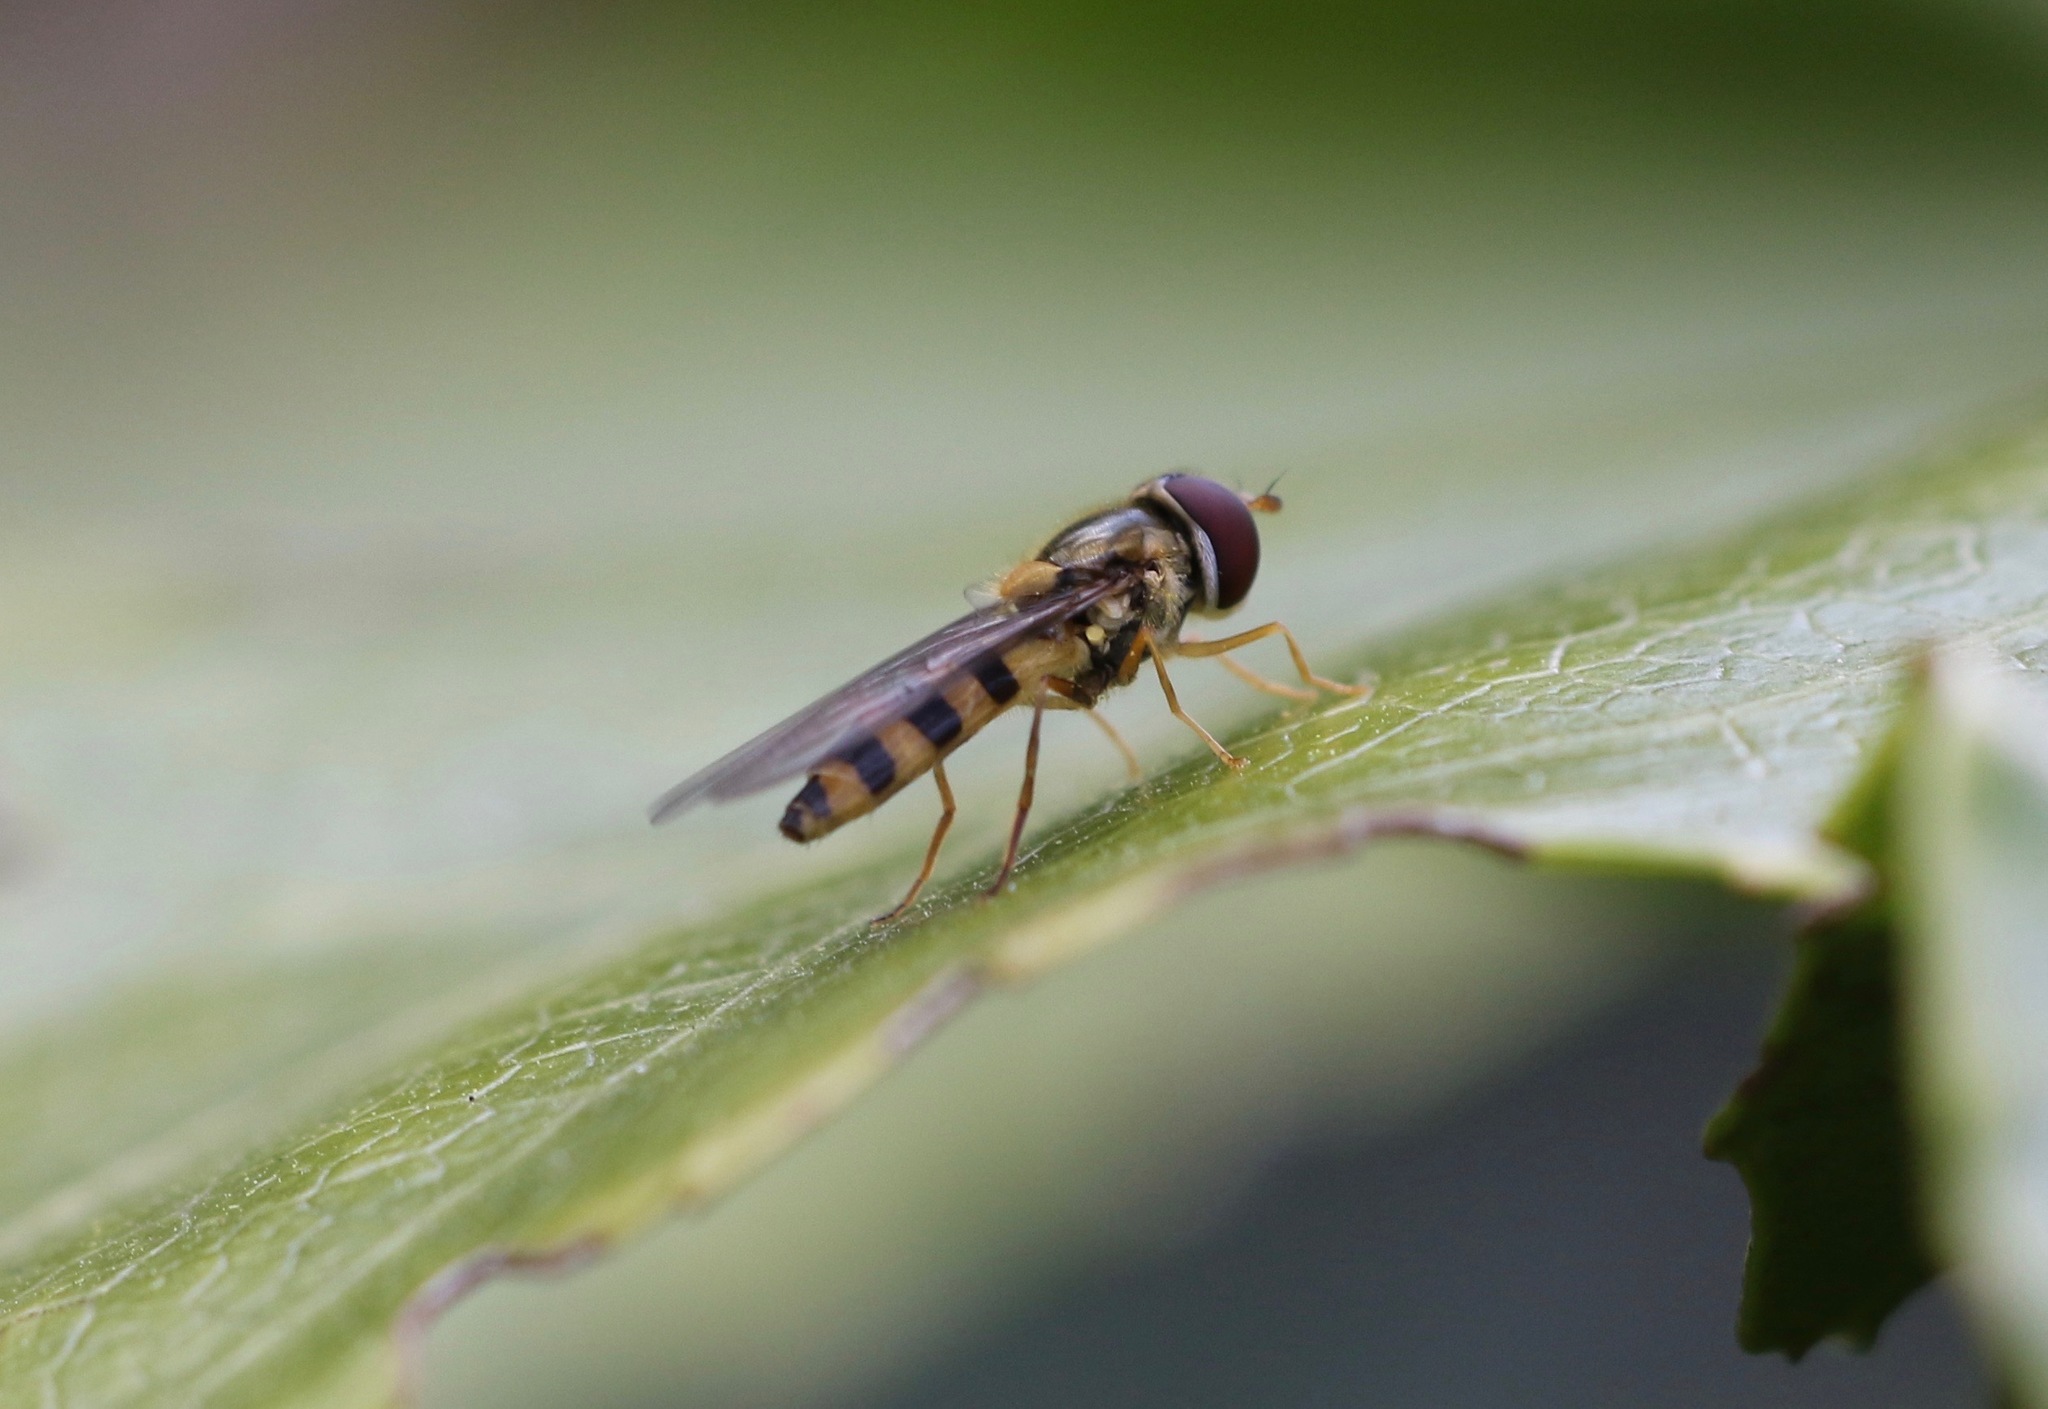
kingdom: Animalia
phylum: Arthropoda
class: Insecta
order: Diptera
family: Syrphidae
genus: Meliscaeva
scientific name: Meliscaeva cinctella
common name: American thintail fly
